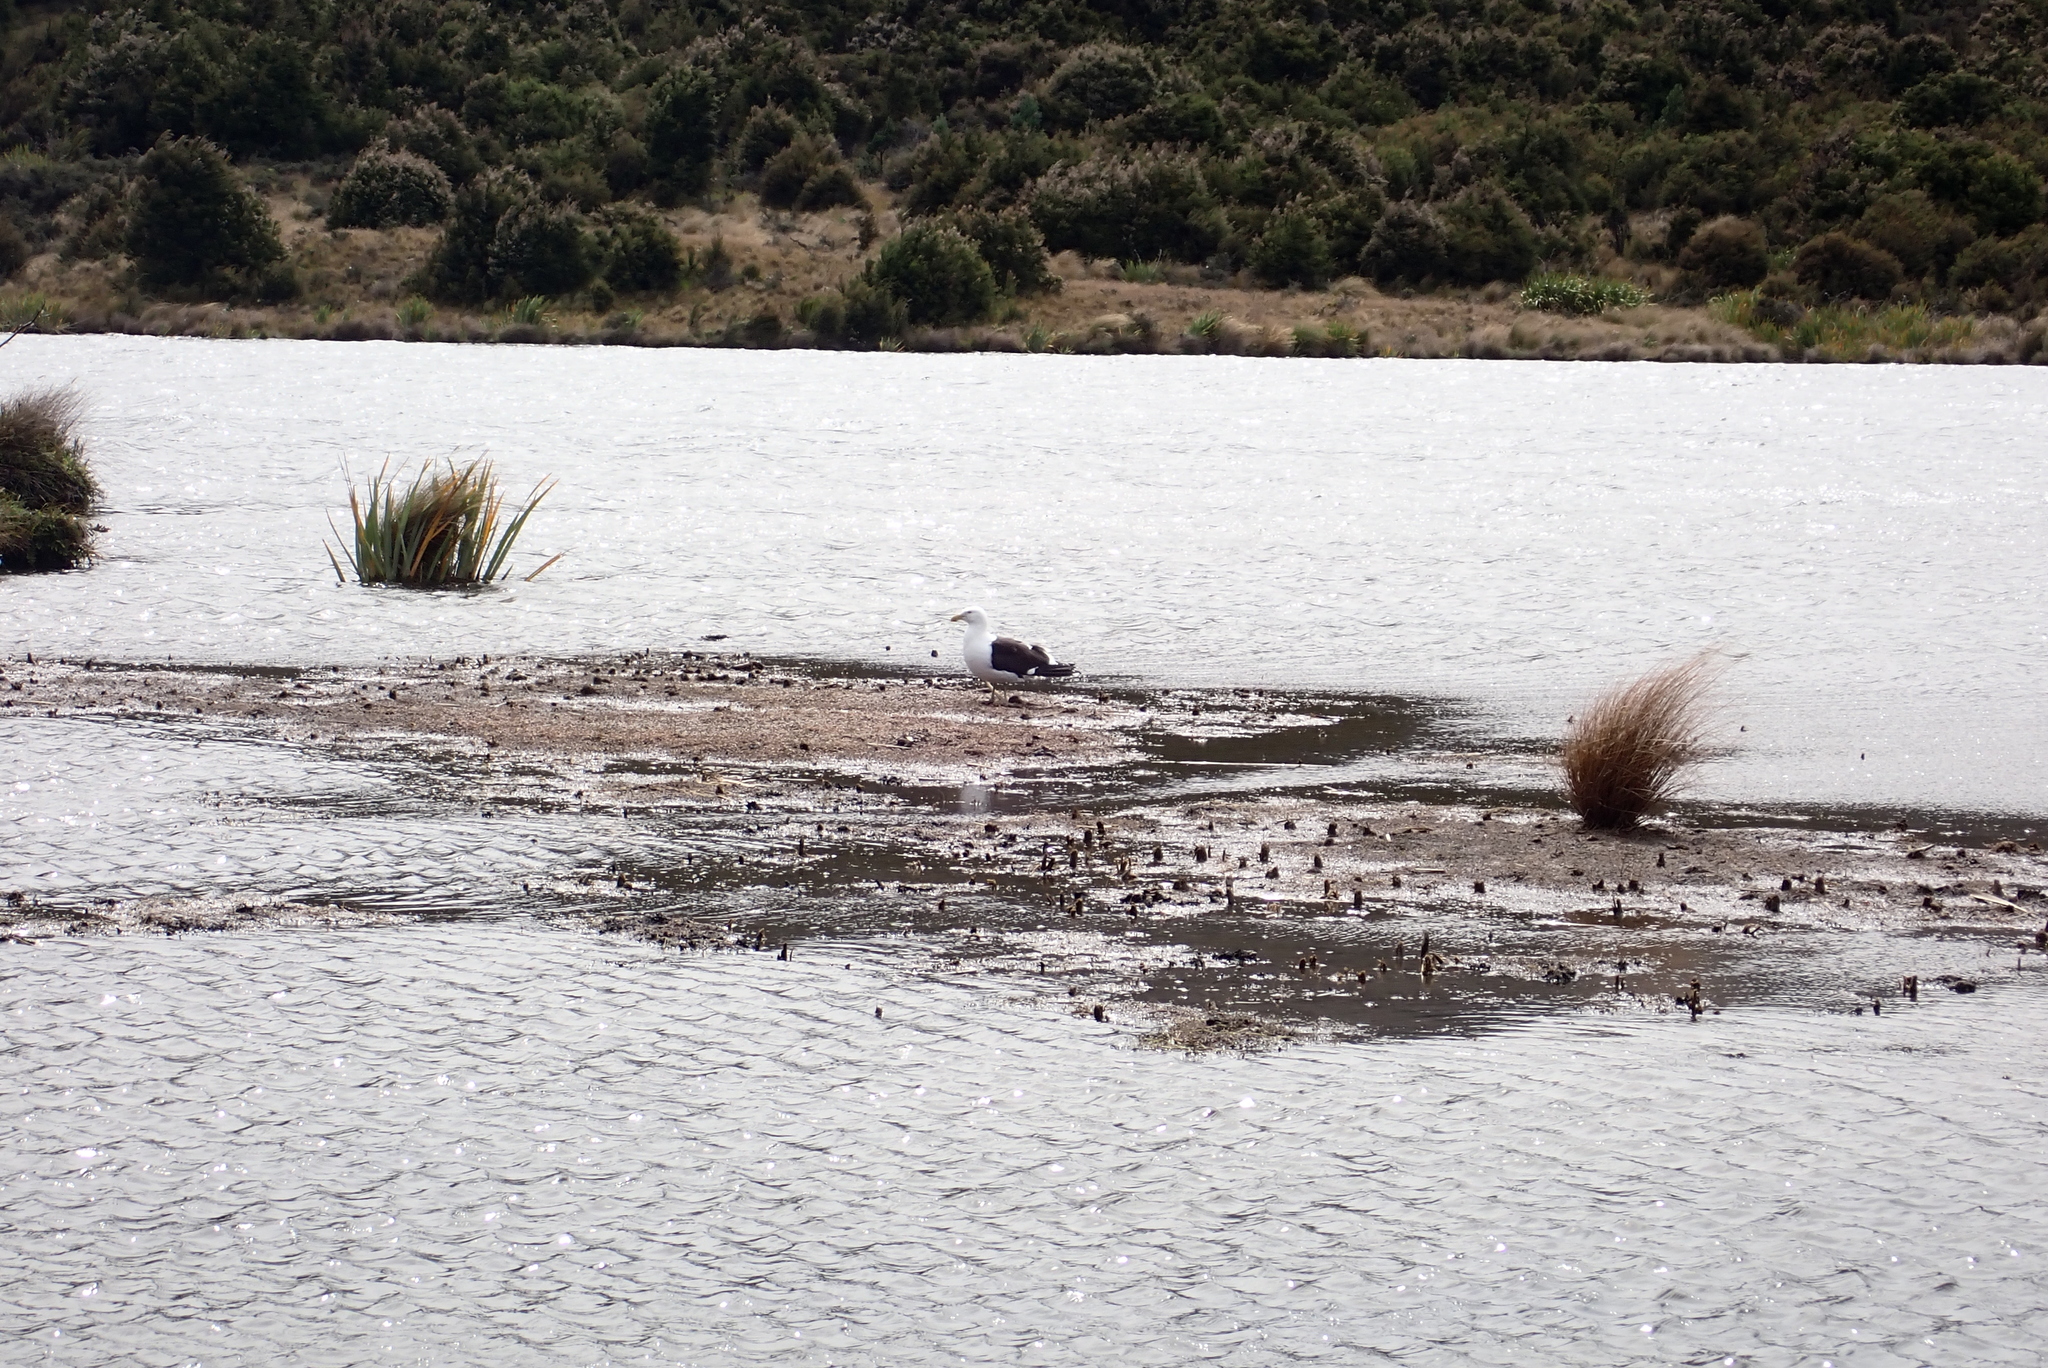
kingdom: Animalia
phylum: Chordata
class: Aves
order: Charadriiformes
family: Laridae
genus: Larus
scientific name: Larus dominicanus
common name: Kelp gull
